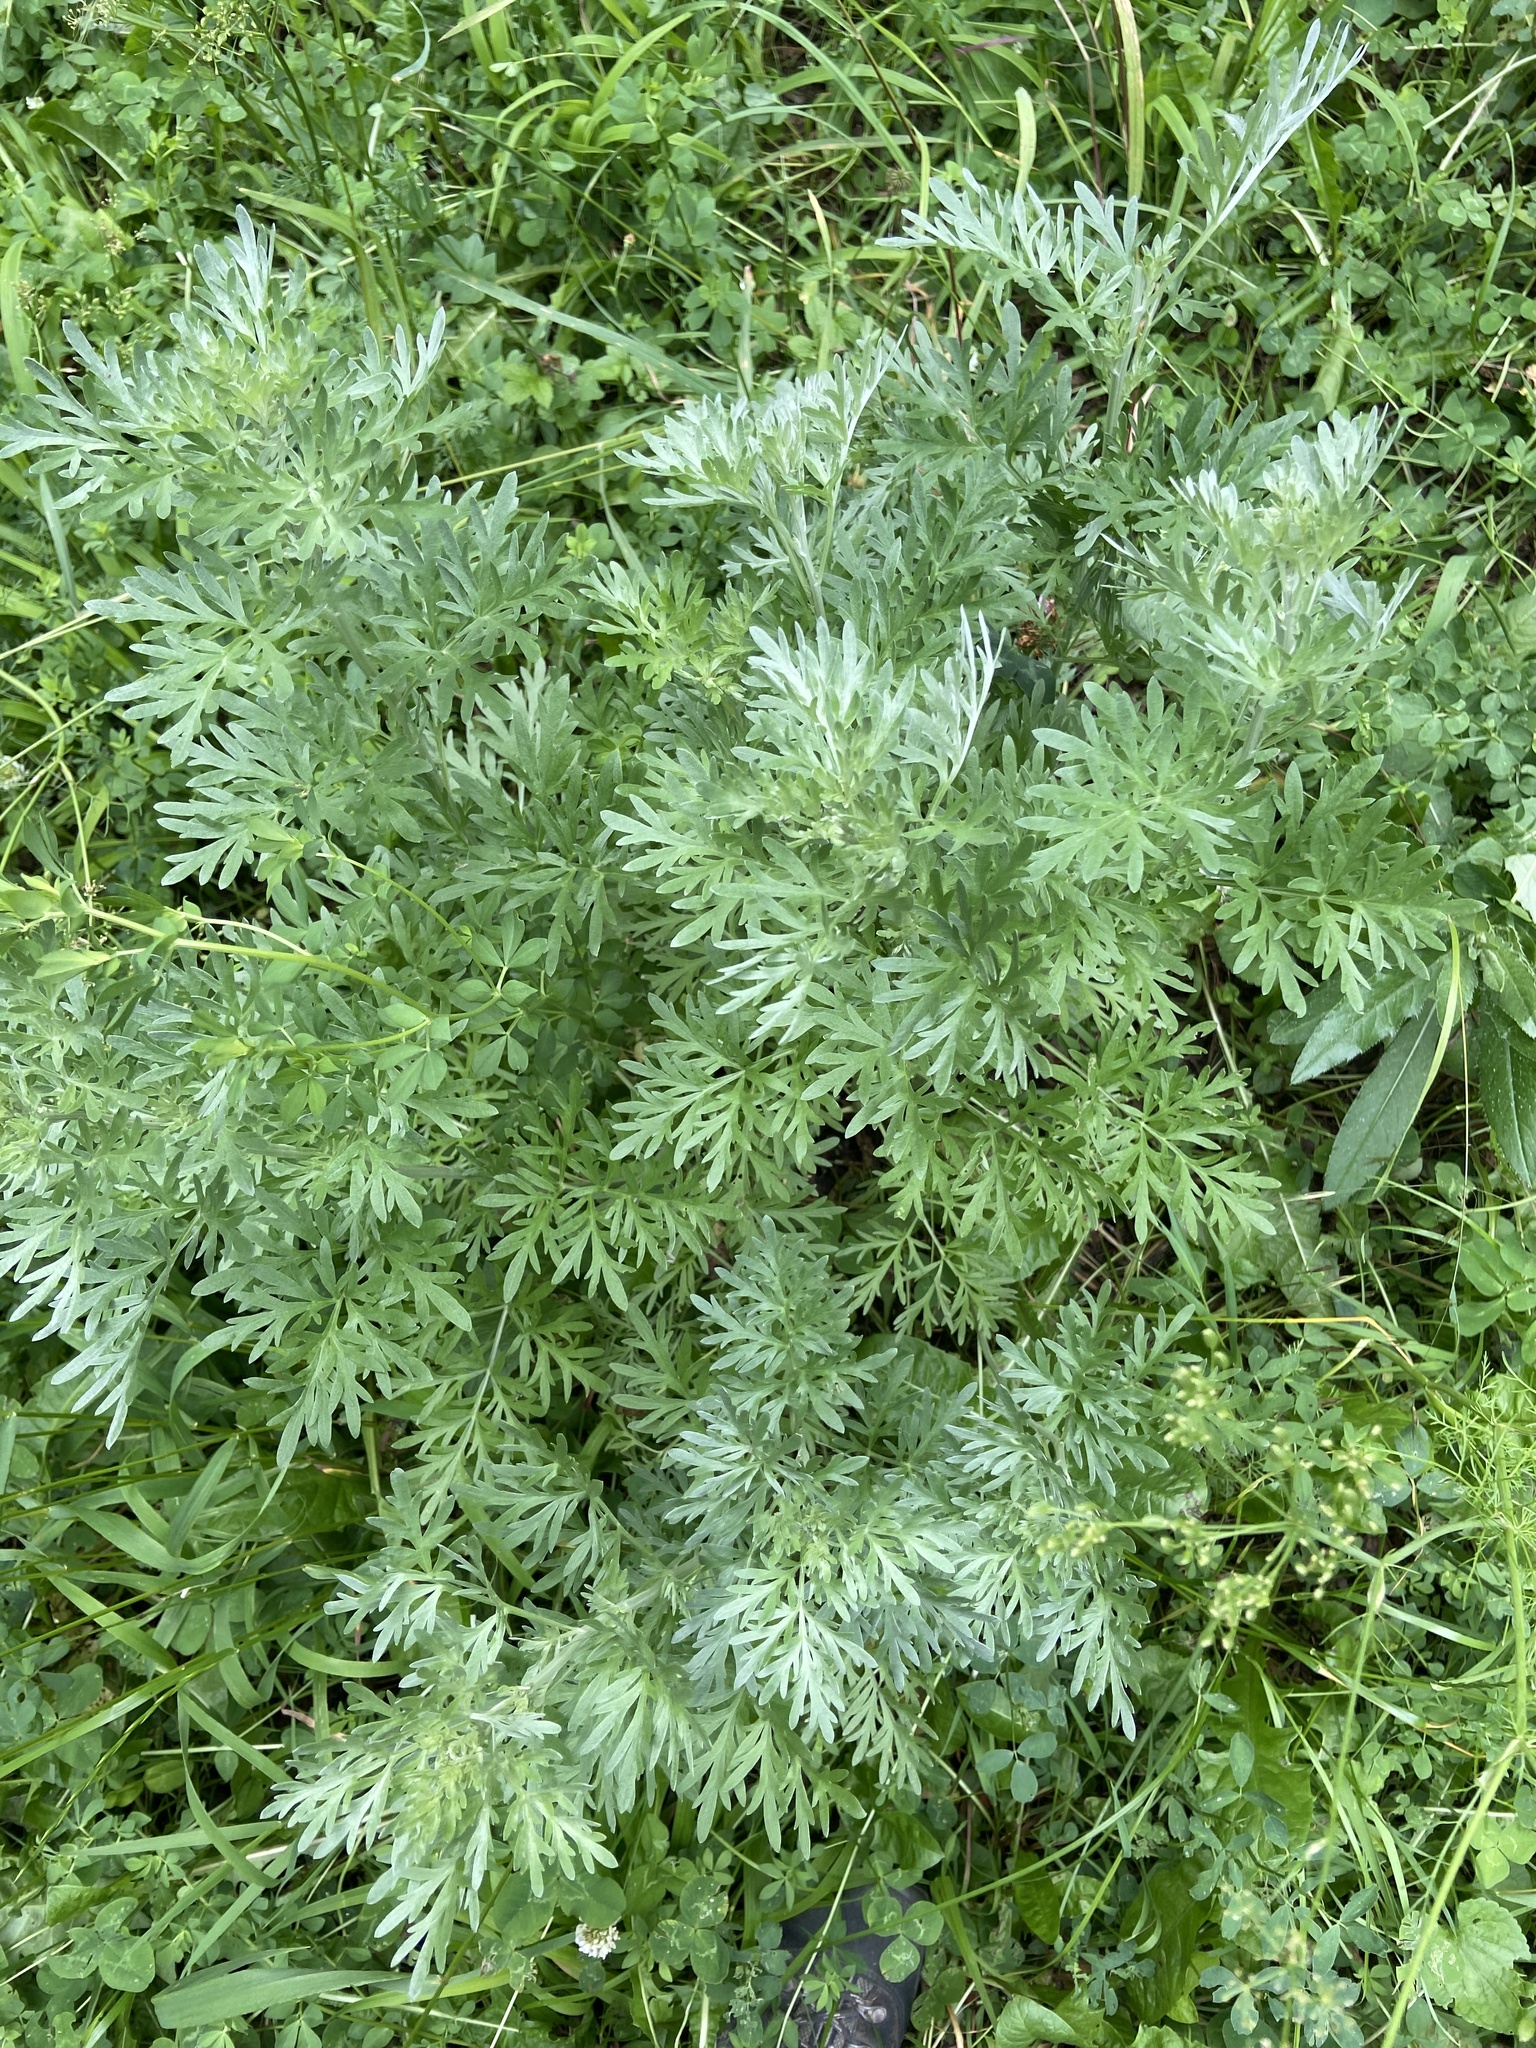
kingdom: Plantae
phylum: Tracheophyta
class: Magnoliopsida
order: Asterales
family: Asteraceae
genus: Artemisia
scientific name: Artemisia absinthium
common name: Wormwood
